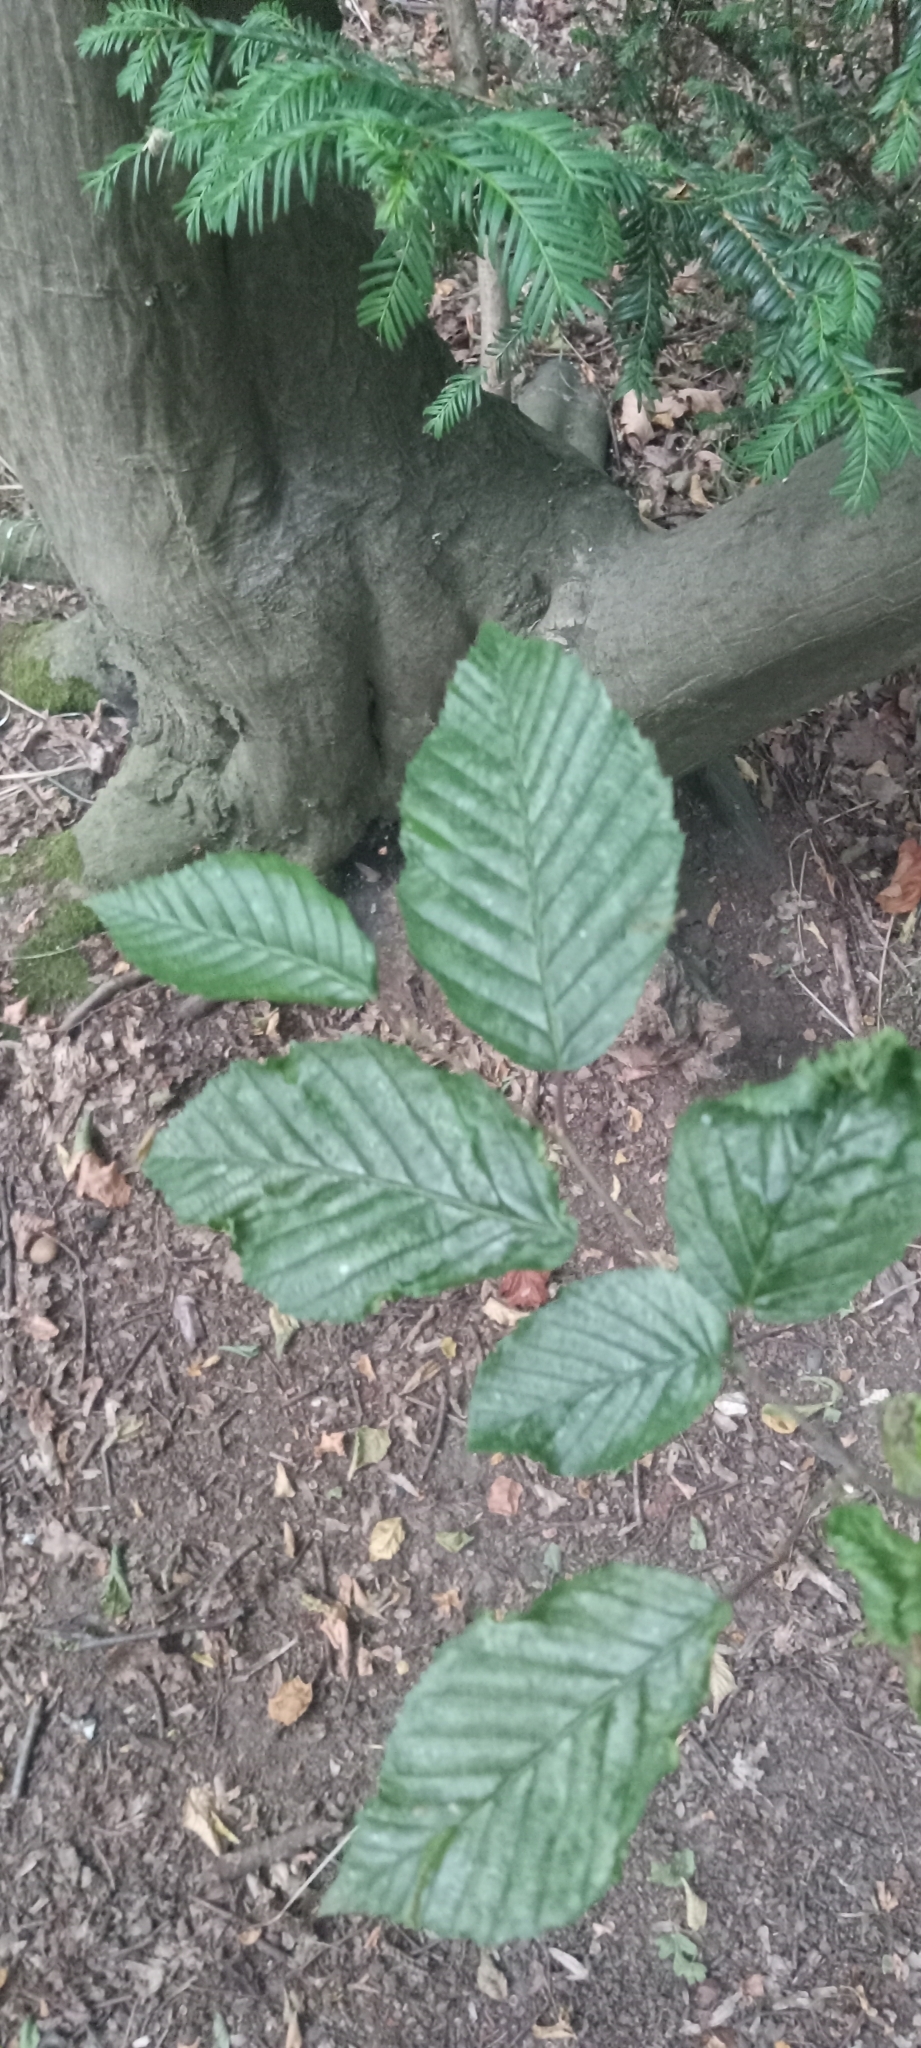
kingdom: Plantae
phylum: Tracheophyta
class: Magnoliopsida
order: Fagales
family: Fagaceae
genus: Fagus
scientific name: Fagus sylvatica
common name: Beech
